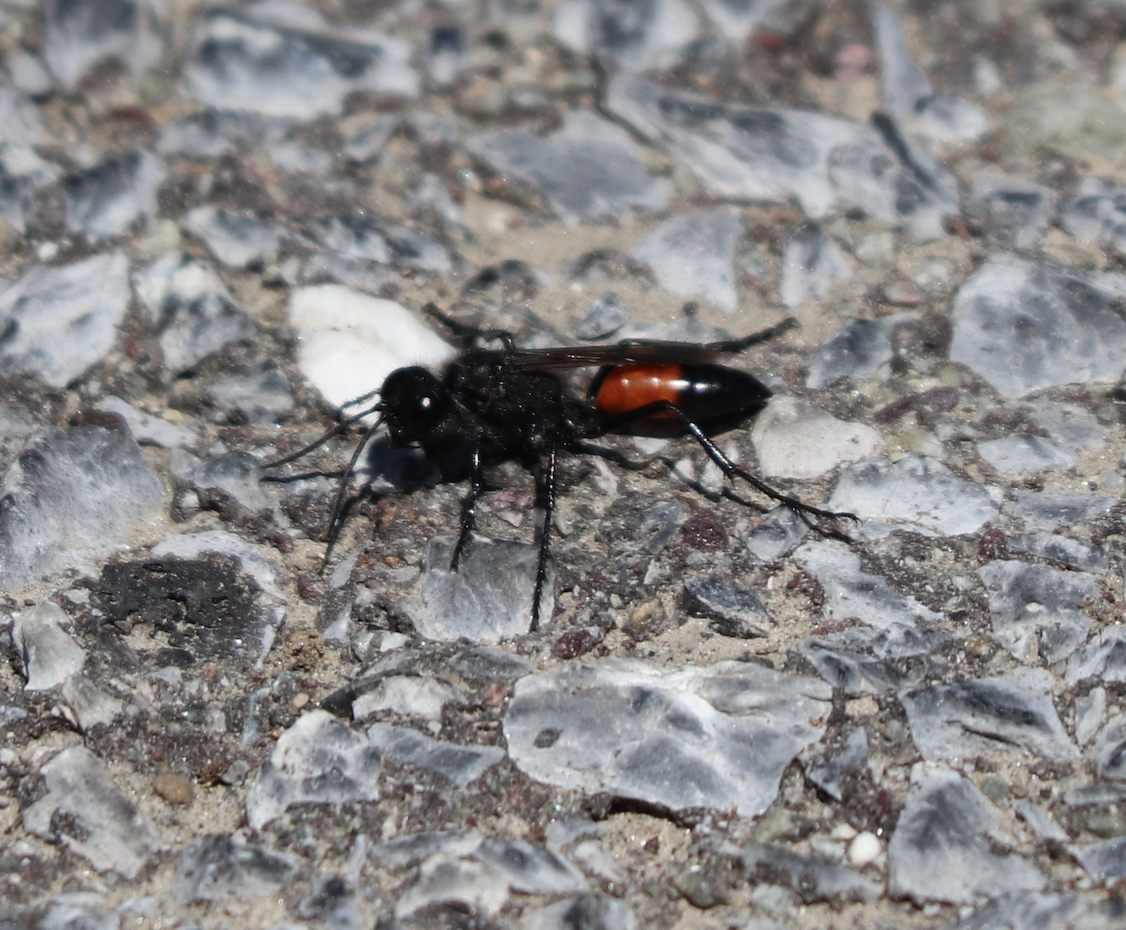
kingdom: Animalia
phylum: Arthropoda
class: Insecta
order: Hymenoptera
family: Sphecidae
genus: Podalonia
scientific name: Podalonia hirsuta
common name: Hairy sand wasp
